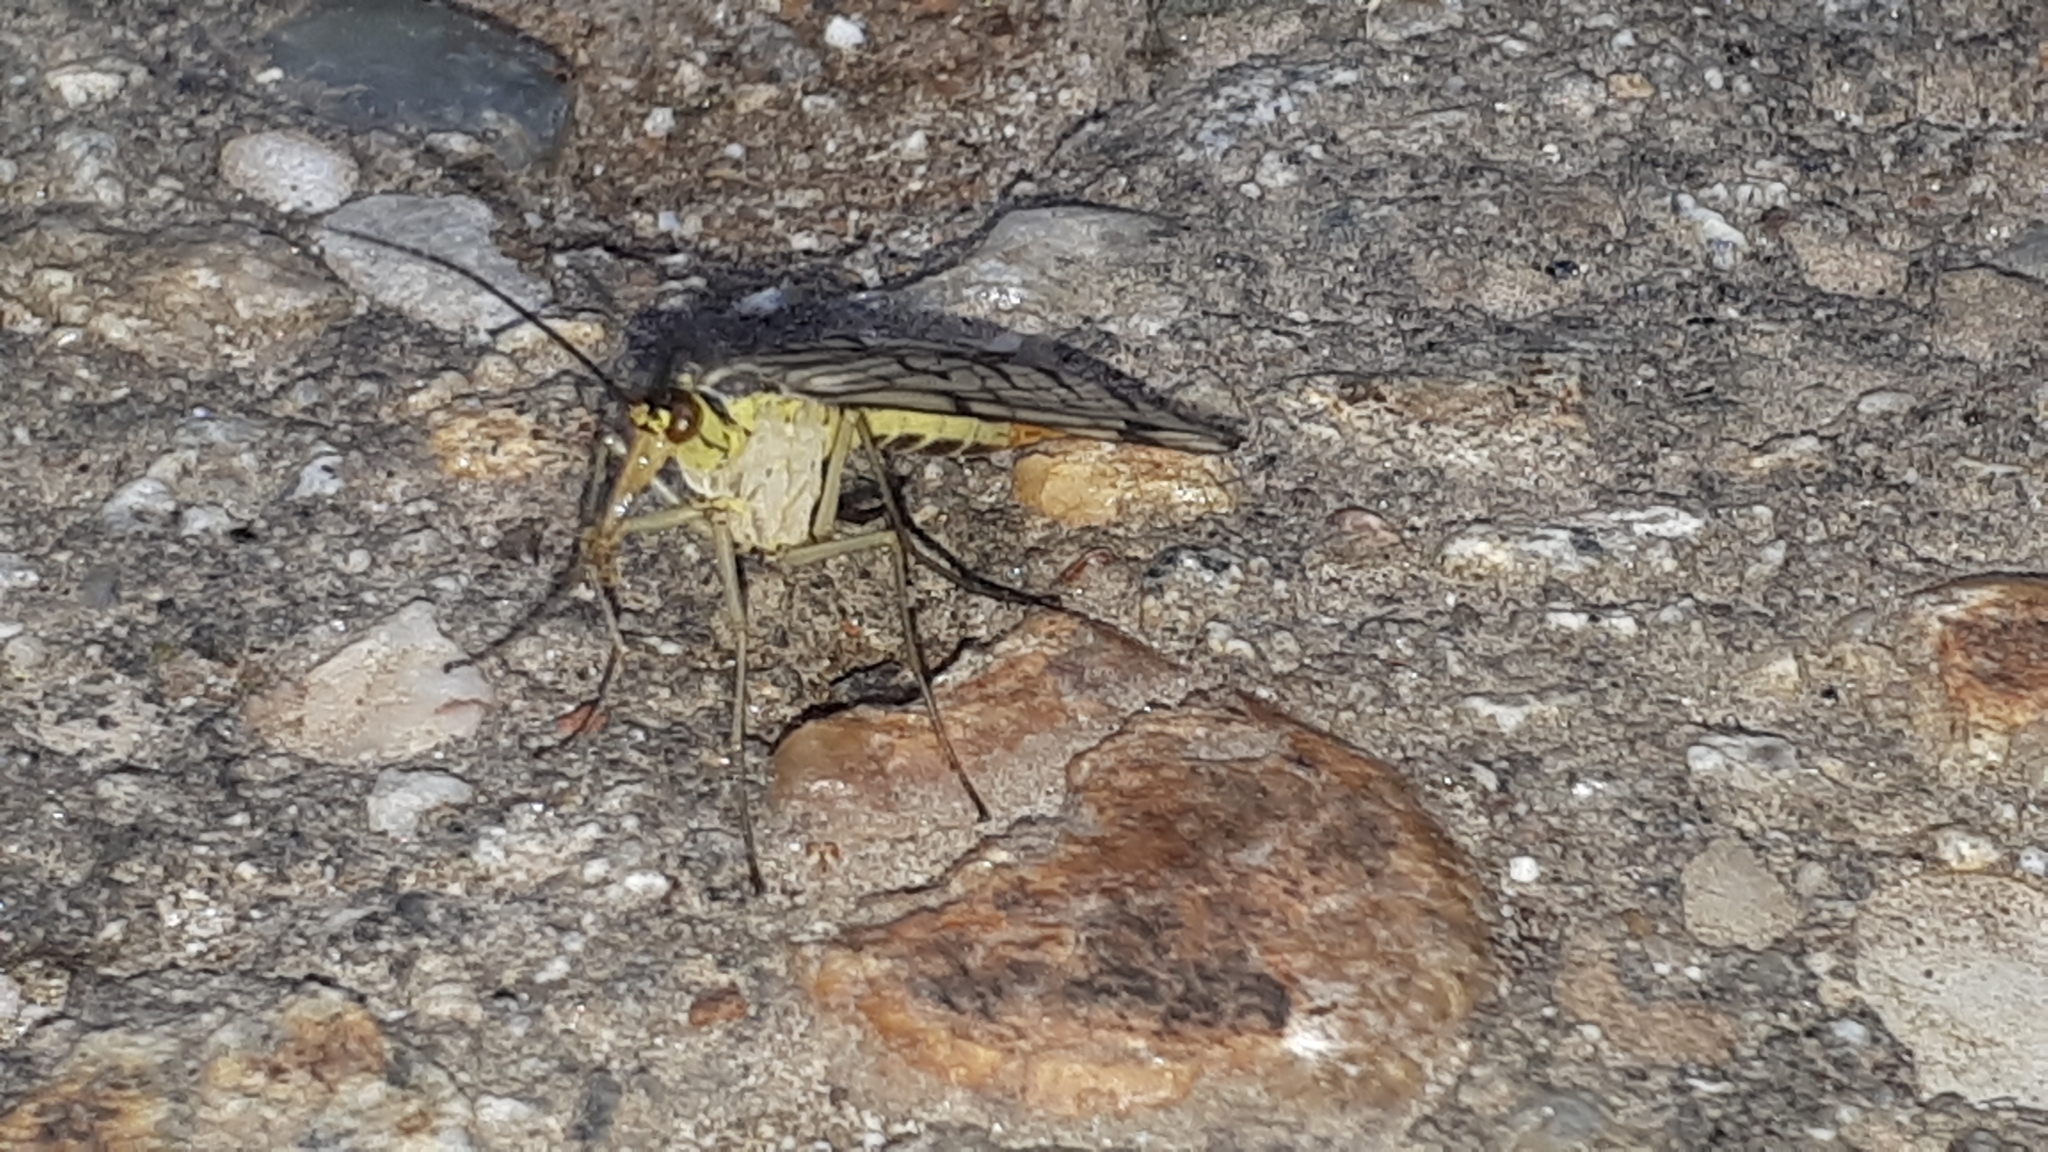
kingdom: Animalia
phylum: Arthropoda
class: Insecta
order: Mecoptera
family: Panorpidae
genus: Panorpa
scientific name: Panorpa germanica
